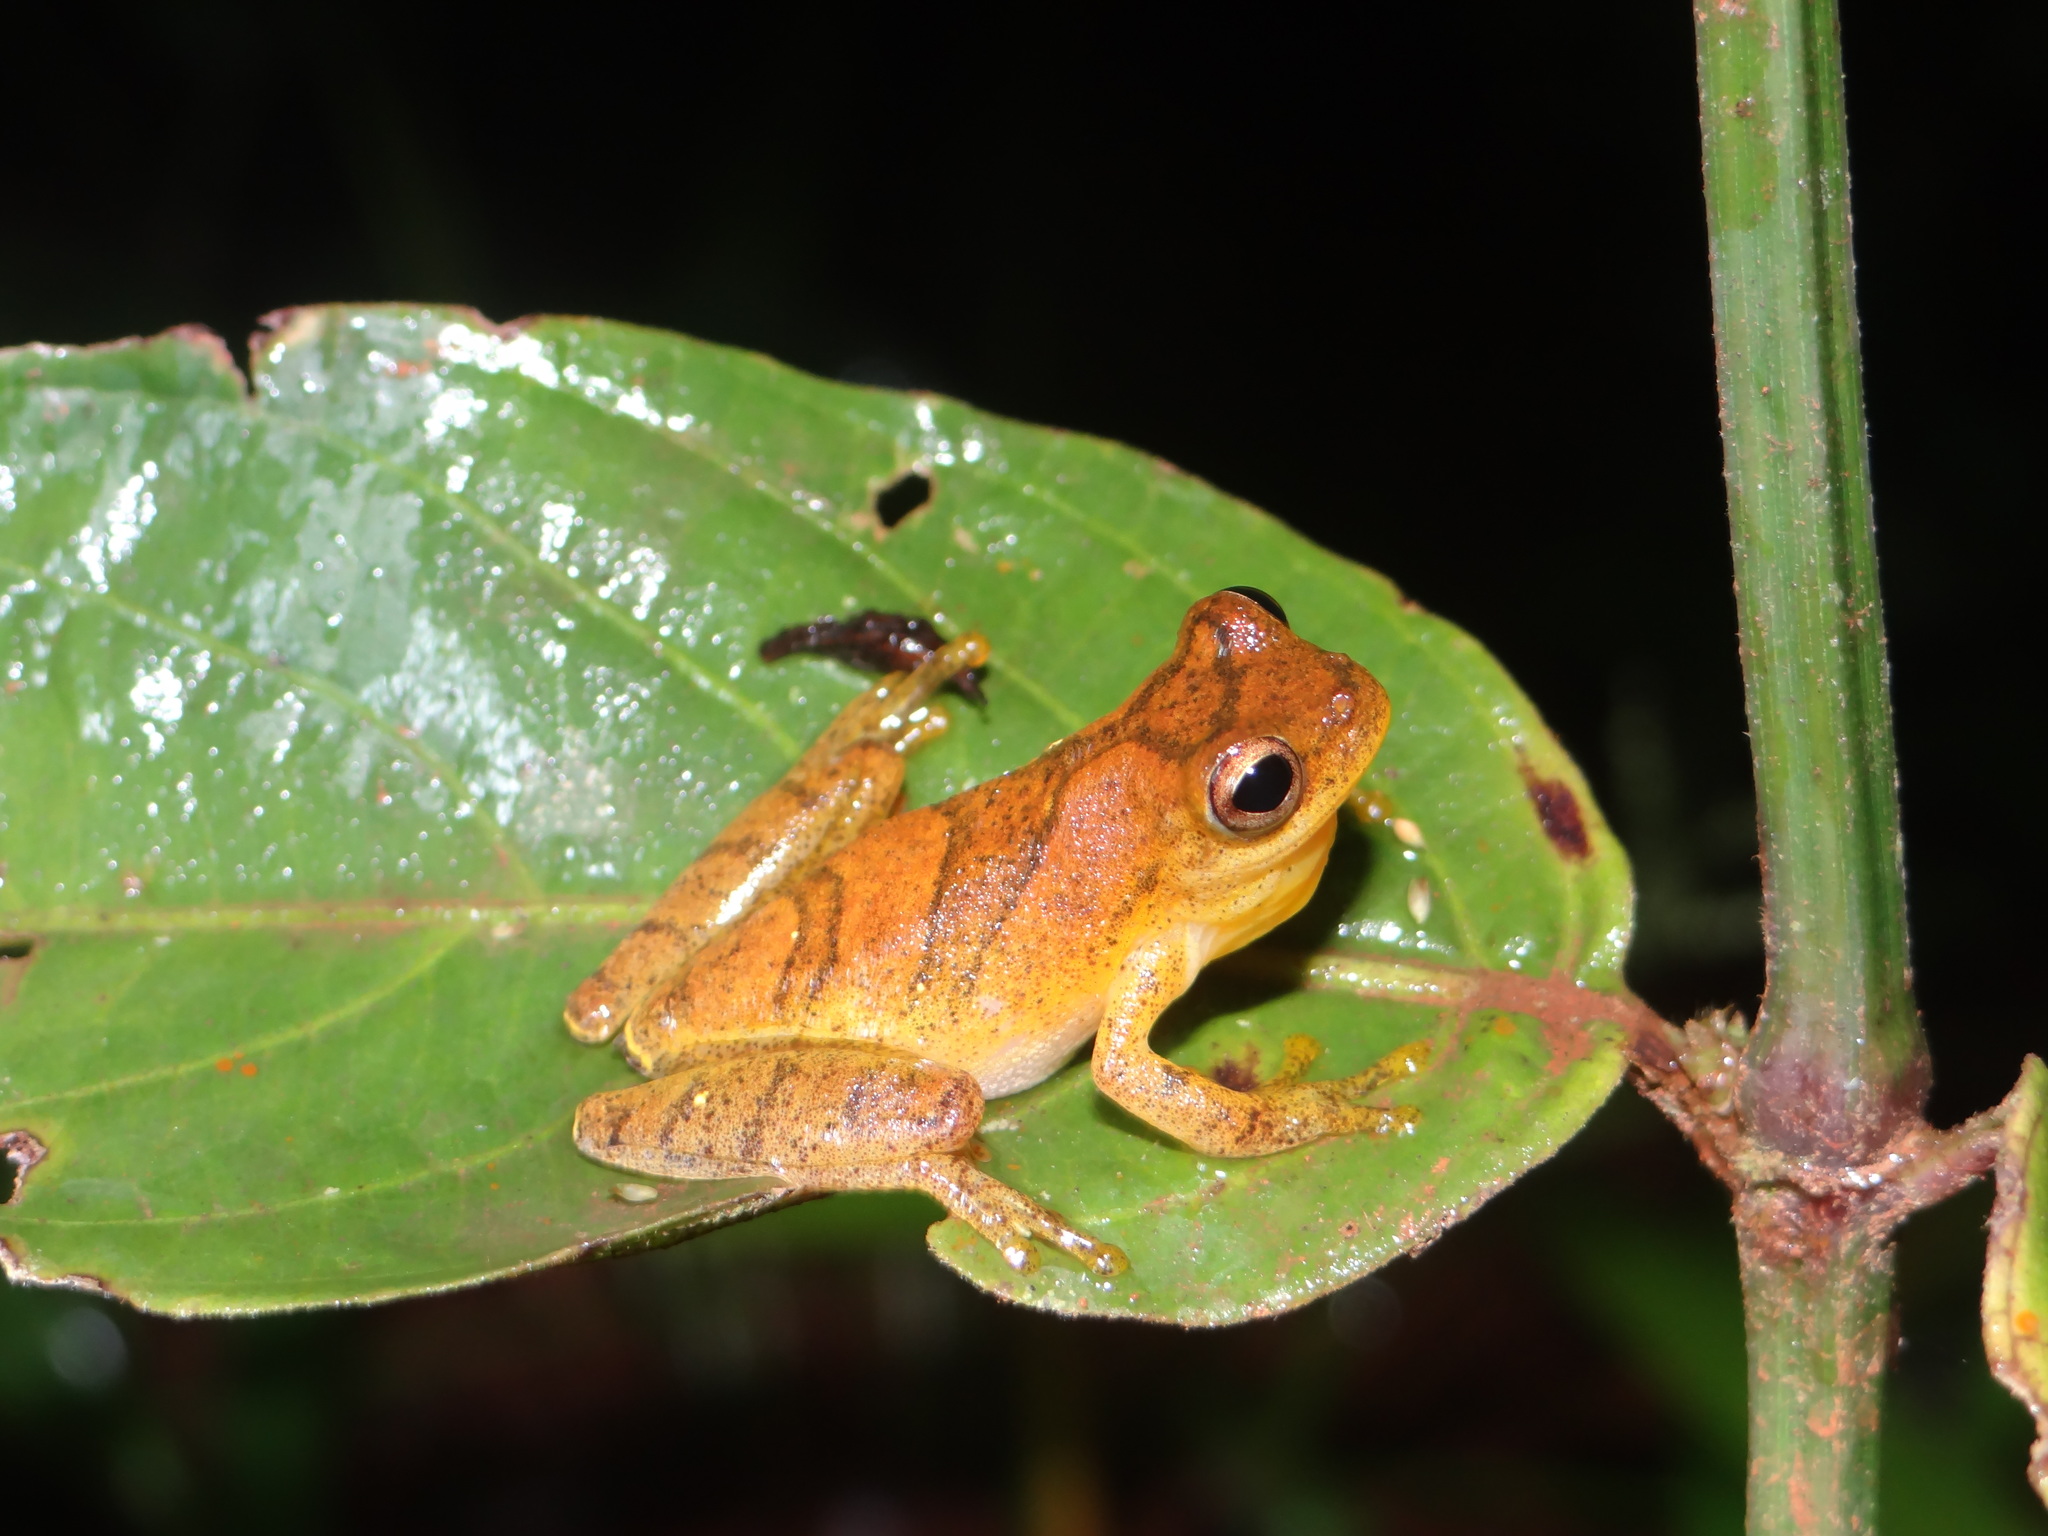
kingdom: Animalia
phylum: Chordata
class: Amphibia
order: Anura
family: Hylidae
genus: Dendropsophus
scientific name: Dendropsophus minutus
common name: Lesser treefrog
